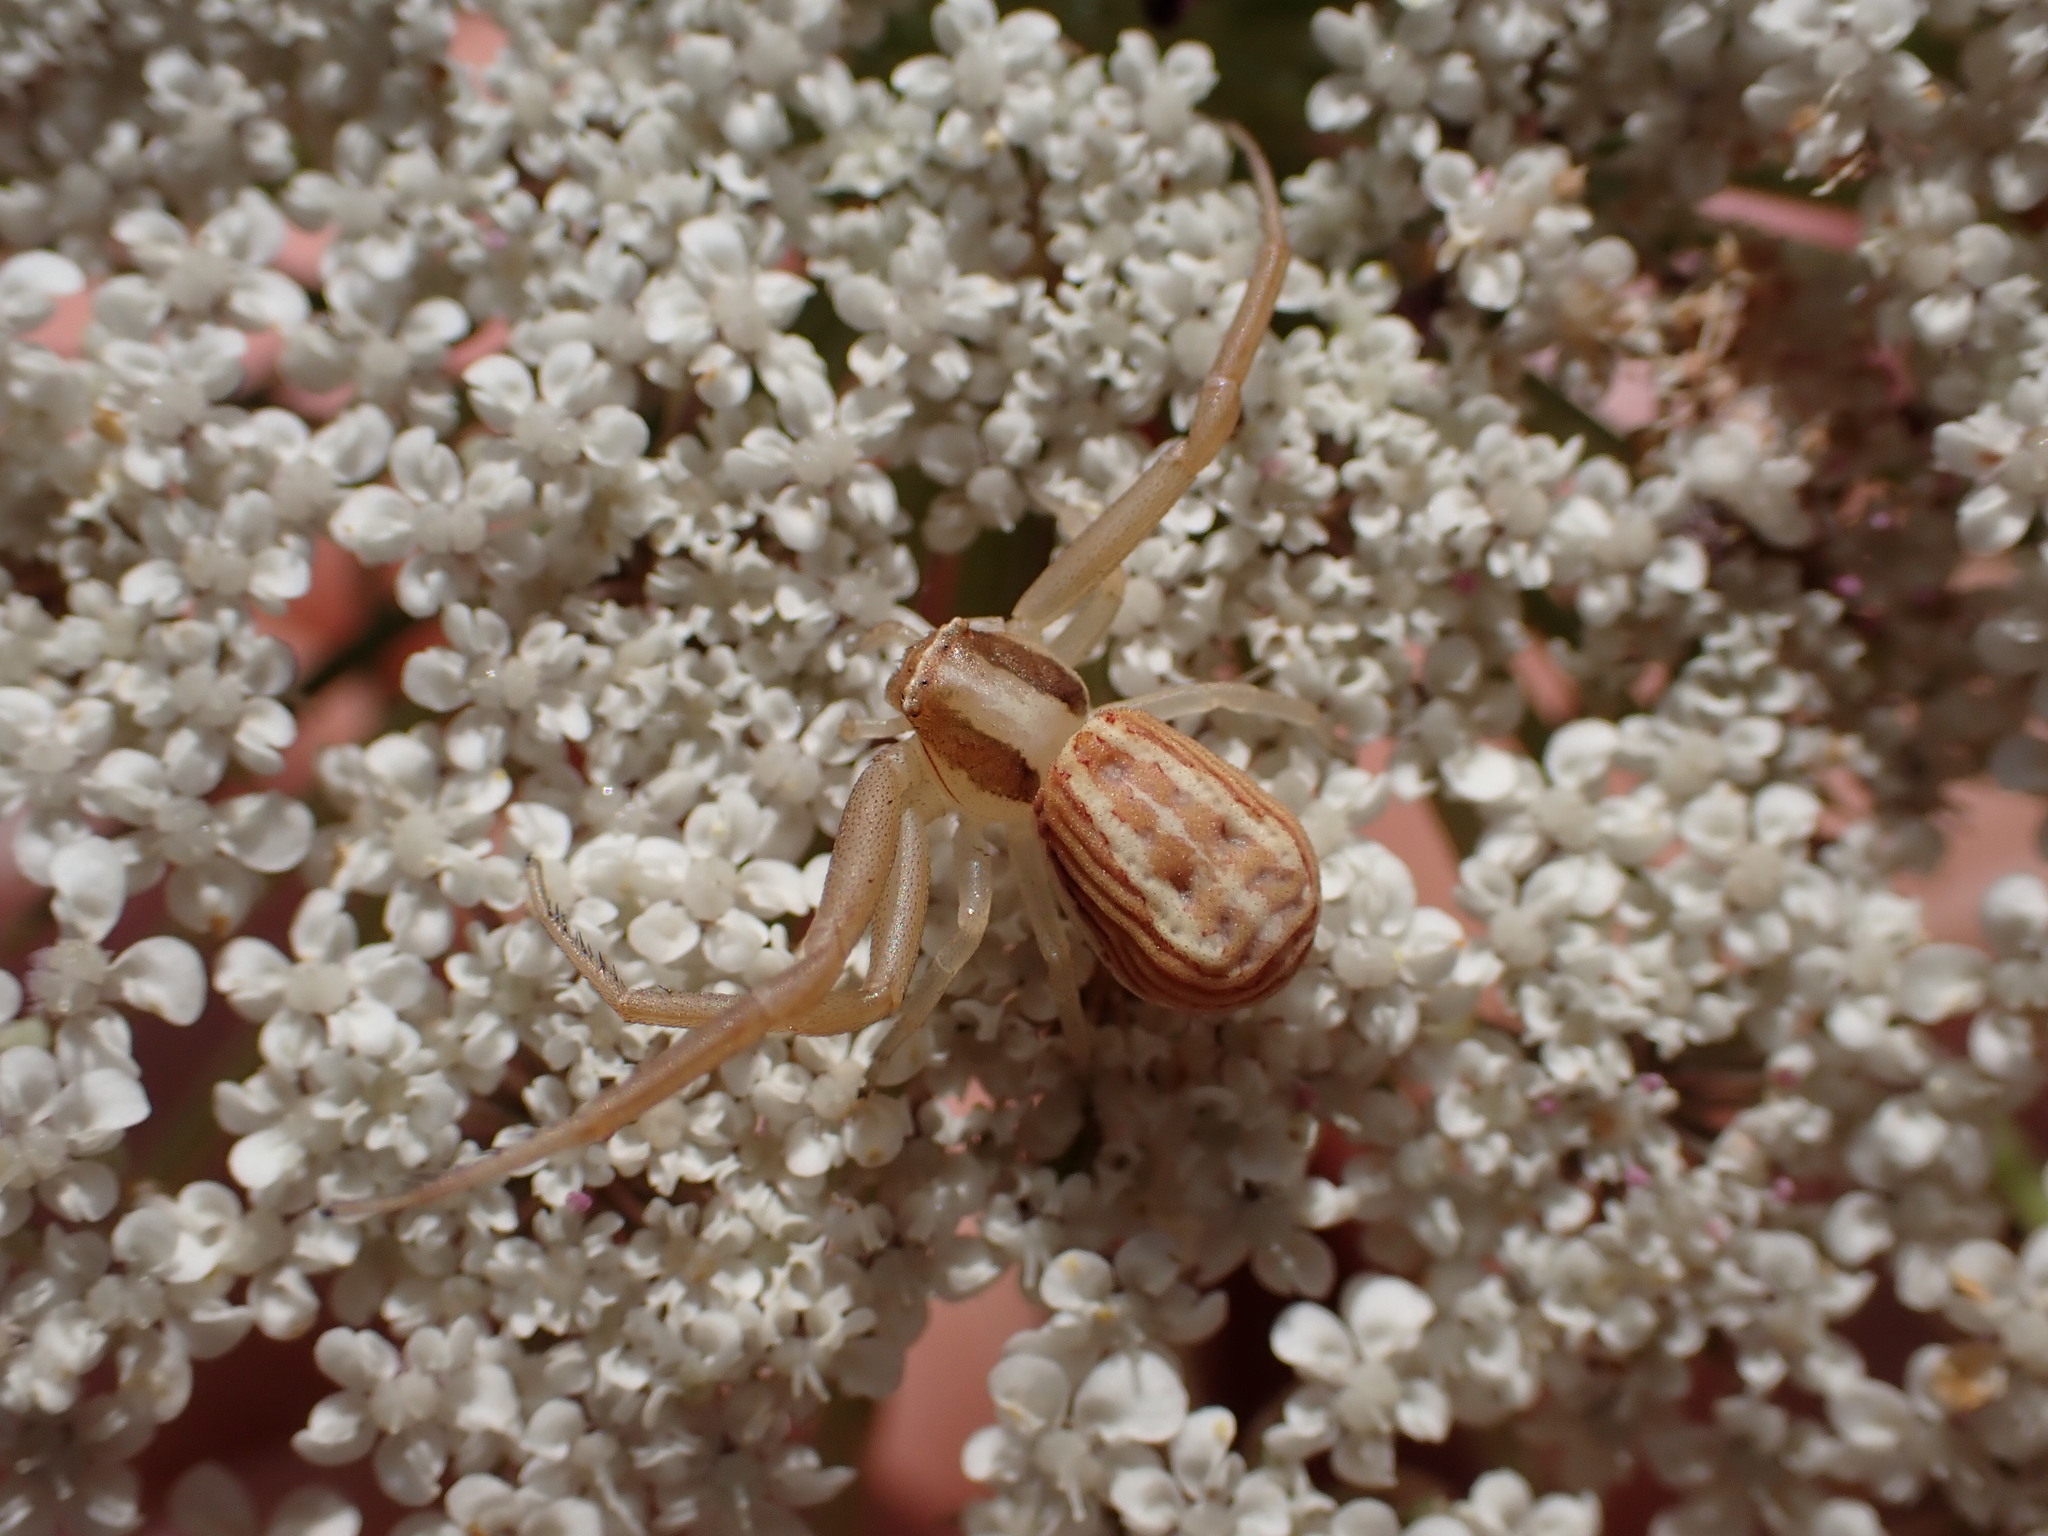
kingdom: Animalia
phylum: Arthropoda
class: Arachnida
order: Araneae
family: Thomisidae
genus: Runcinia
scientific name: Runcinia grammica
